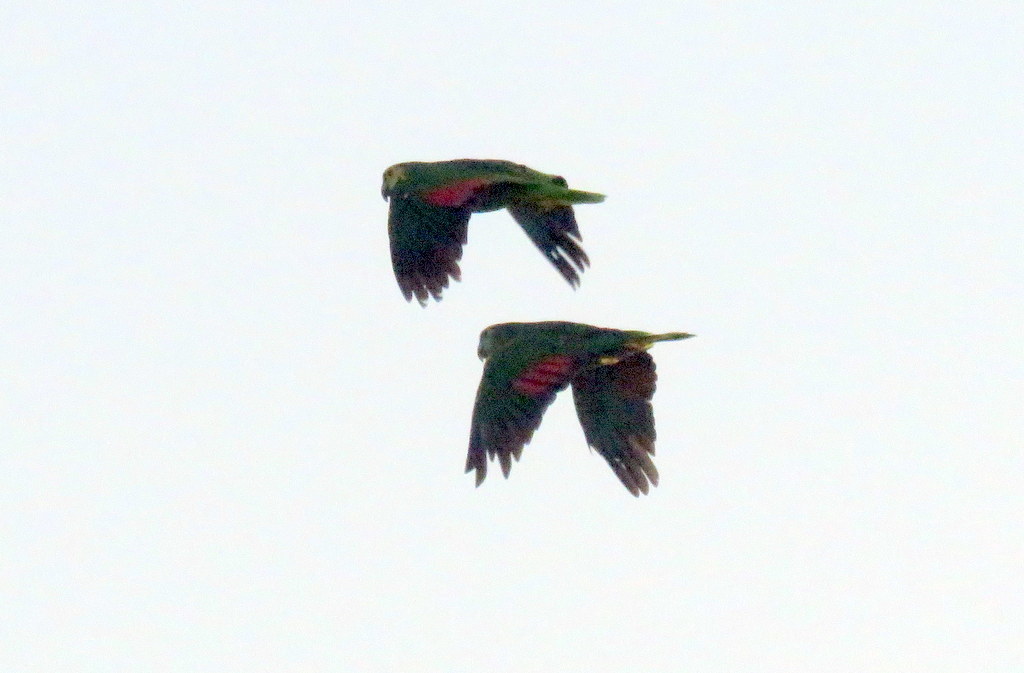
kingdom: Animalia
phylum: Chordata
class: Aves
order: Psittaciformes
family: Psittacidae
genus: Amazona
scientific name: Amazona aestiva
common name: Turquoise-fronted amazon
